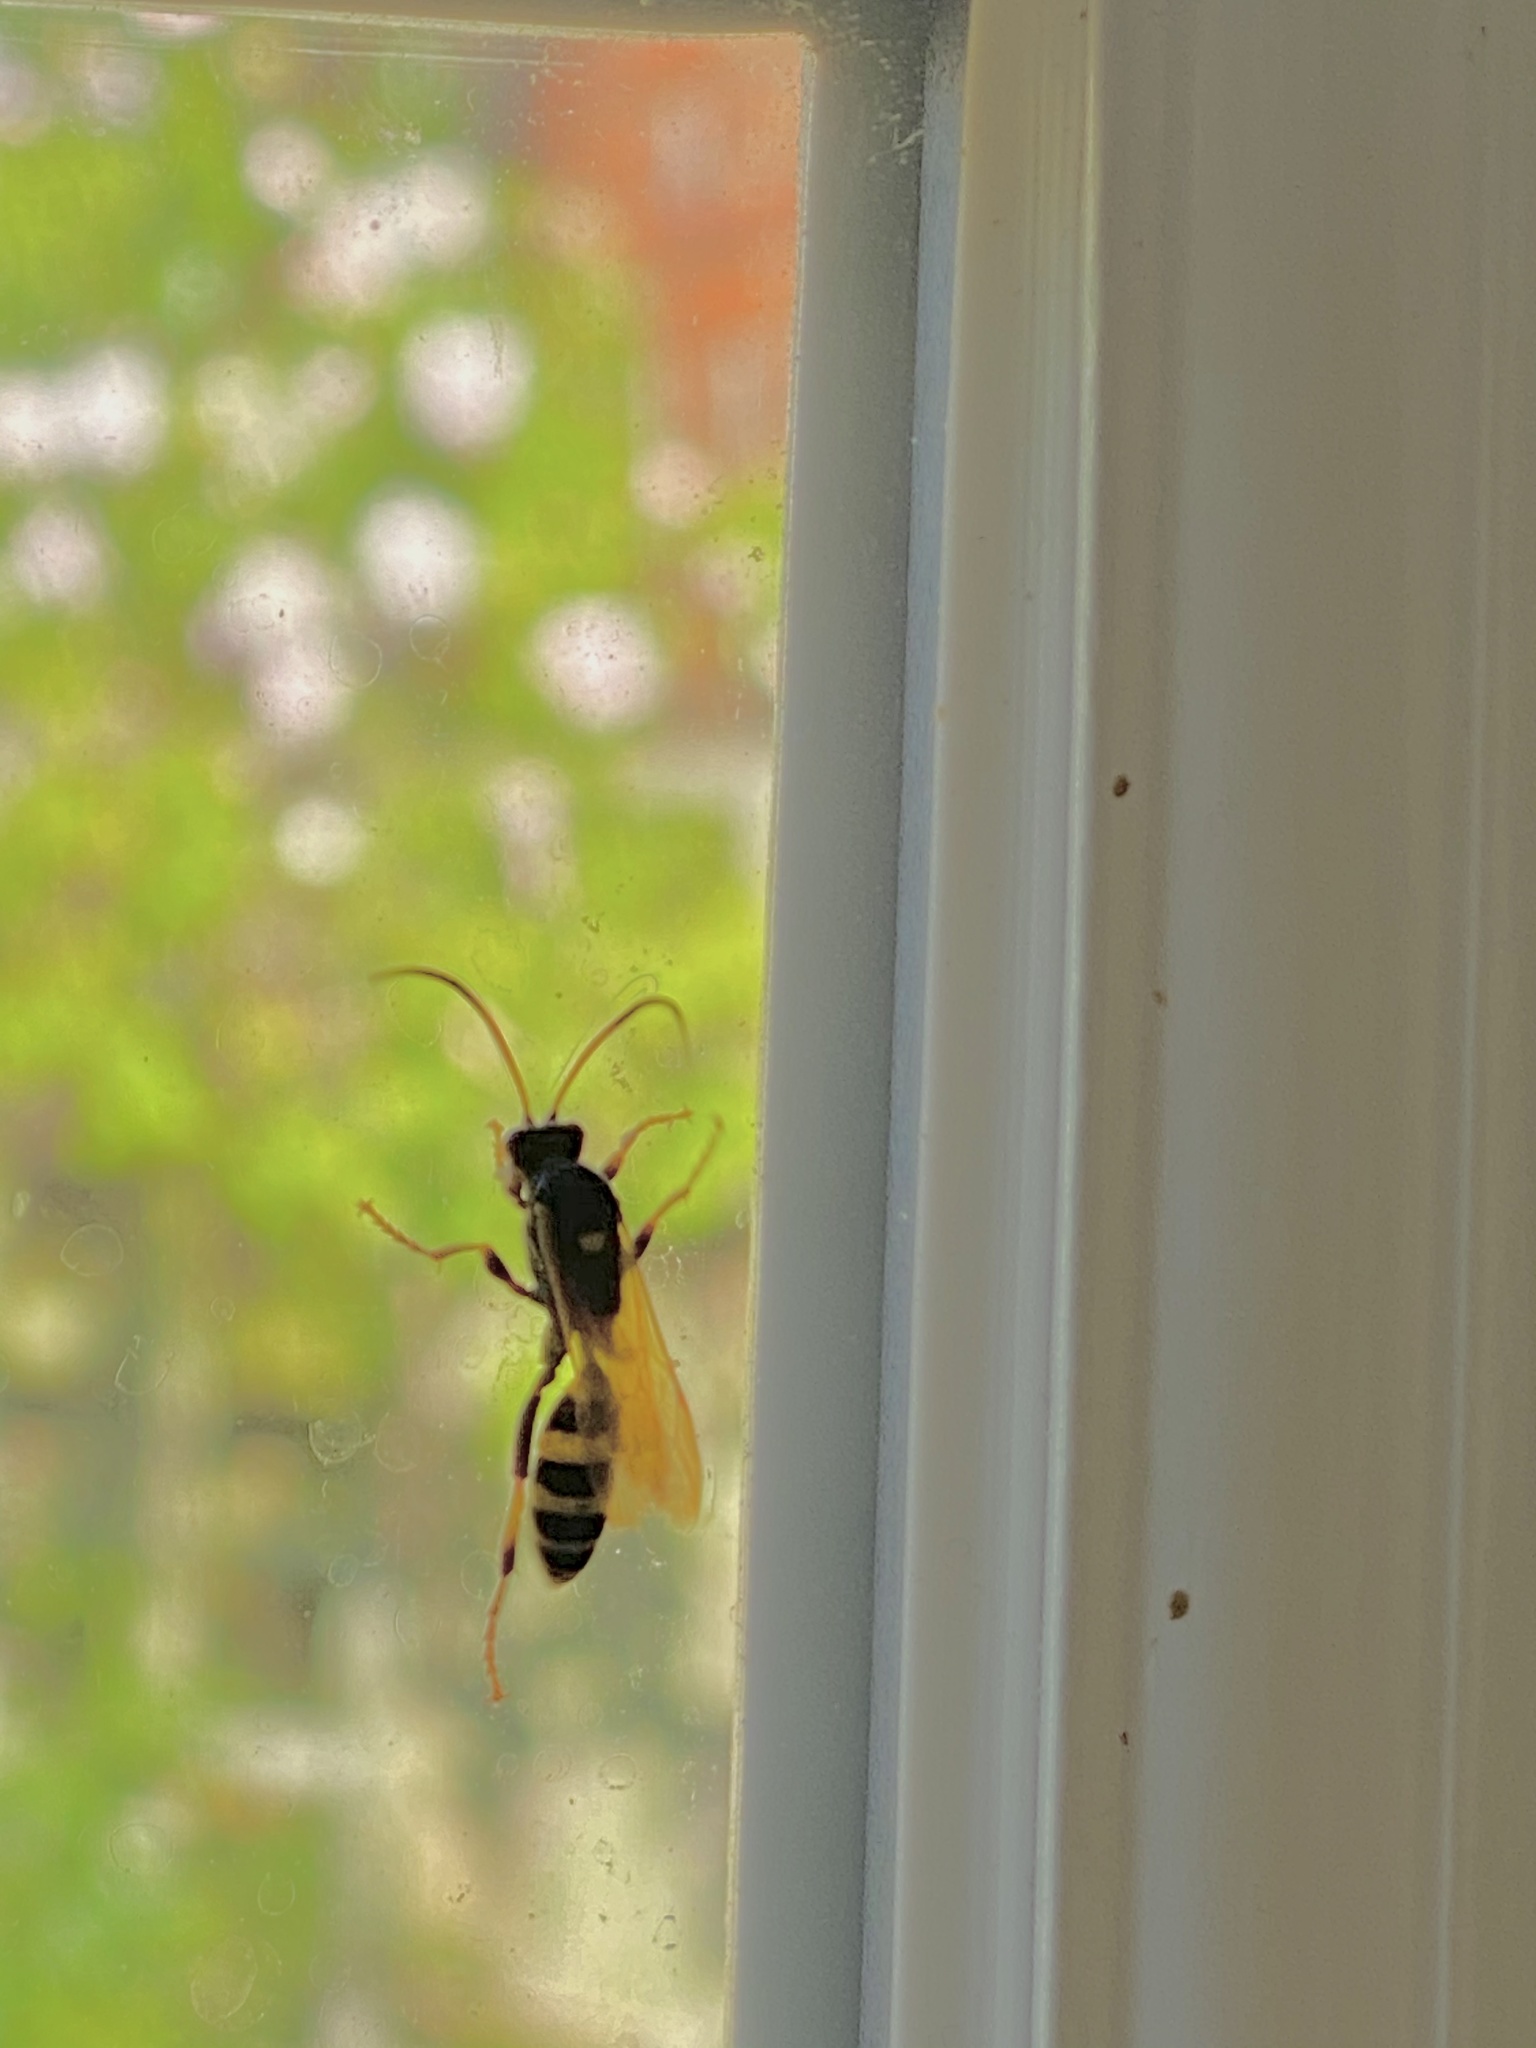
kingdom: Animalia
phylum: Arthropoda
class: Insecta
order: Hymenoptera
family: Ichneumonidae
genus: Ichneumon
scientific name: Ichneumon xanthorius
